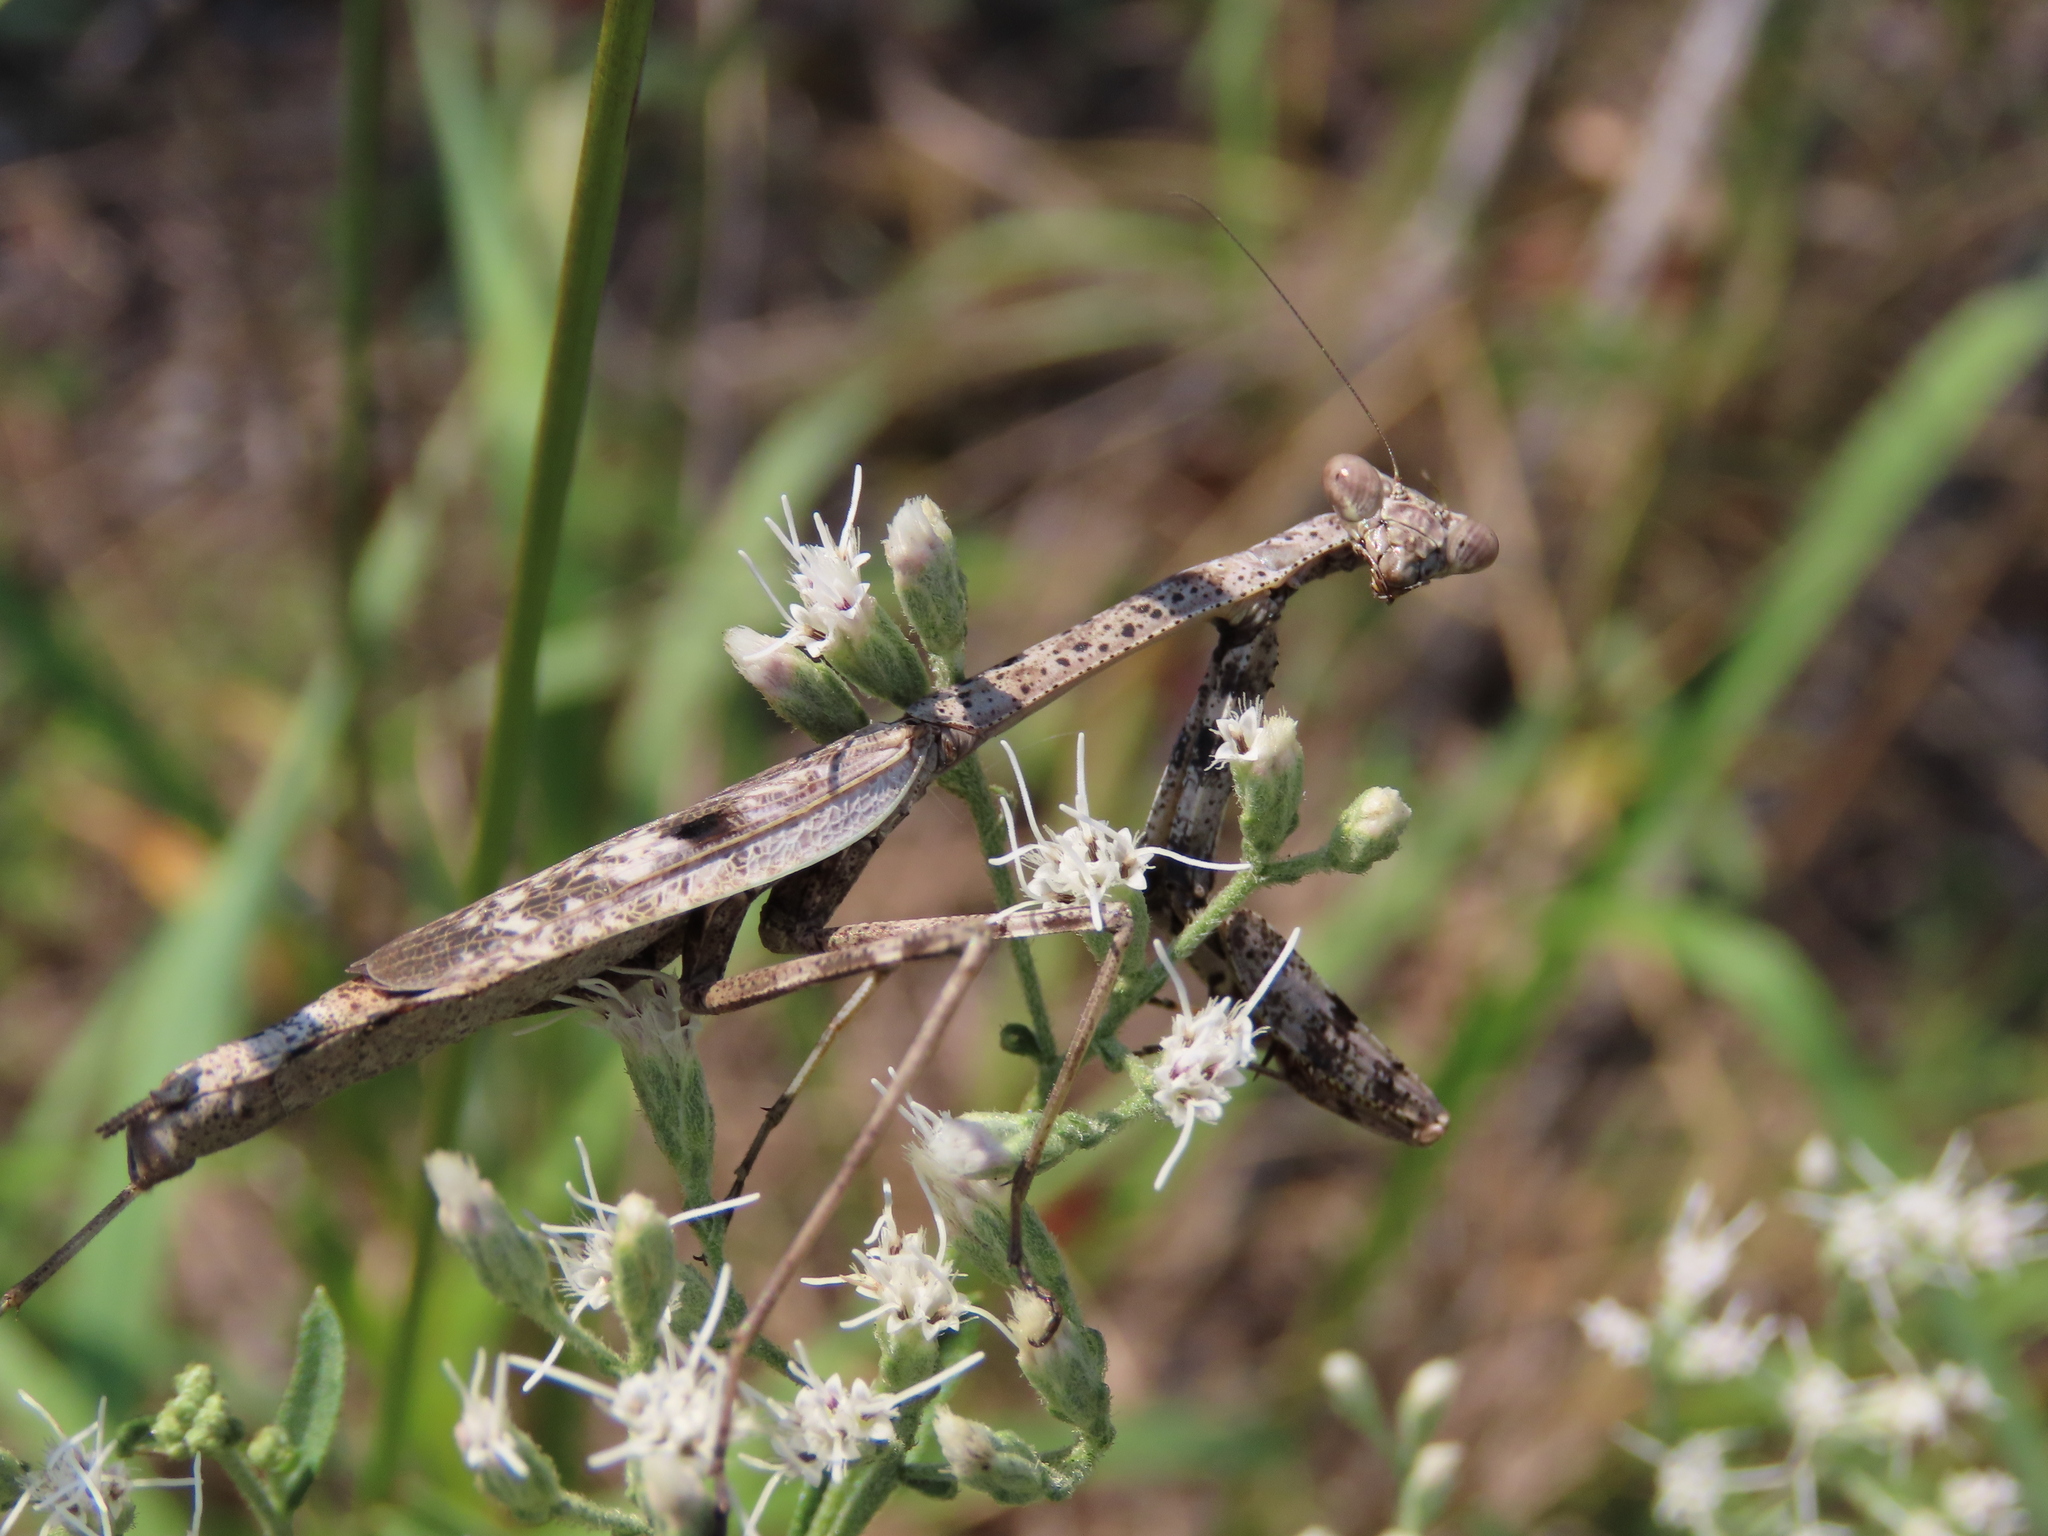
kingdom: Animalia
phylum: Arthropoda
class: Insecta
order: Mantodea
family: Mantidae
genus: Stagmomantis
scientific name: Stagmomantis carolina
